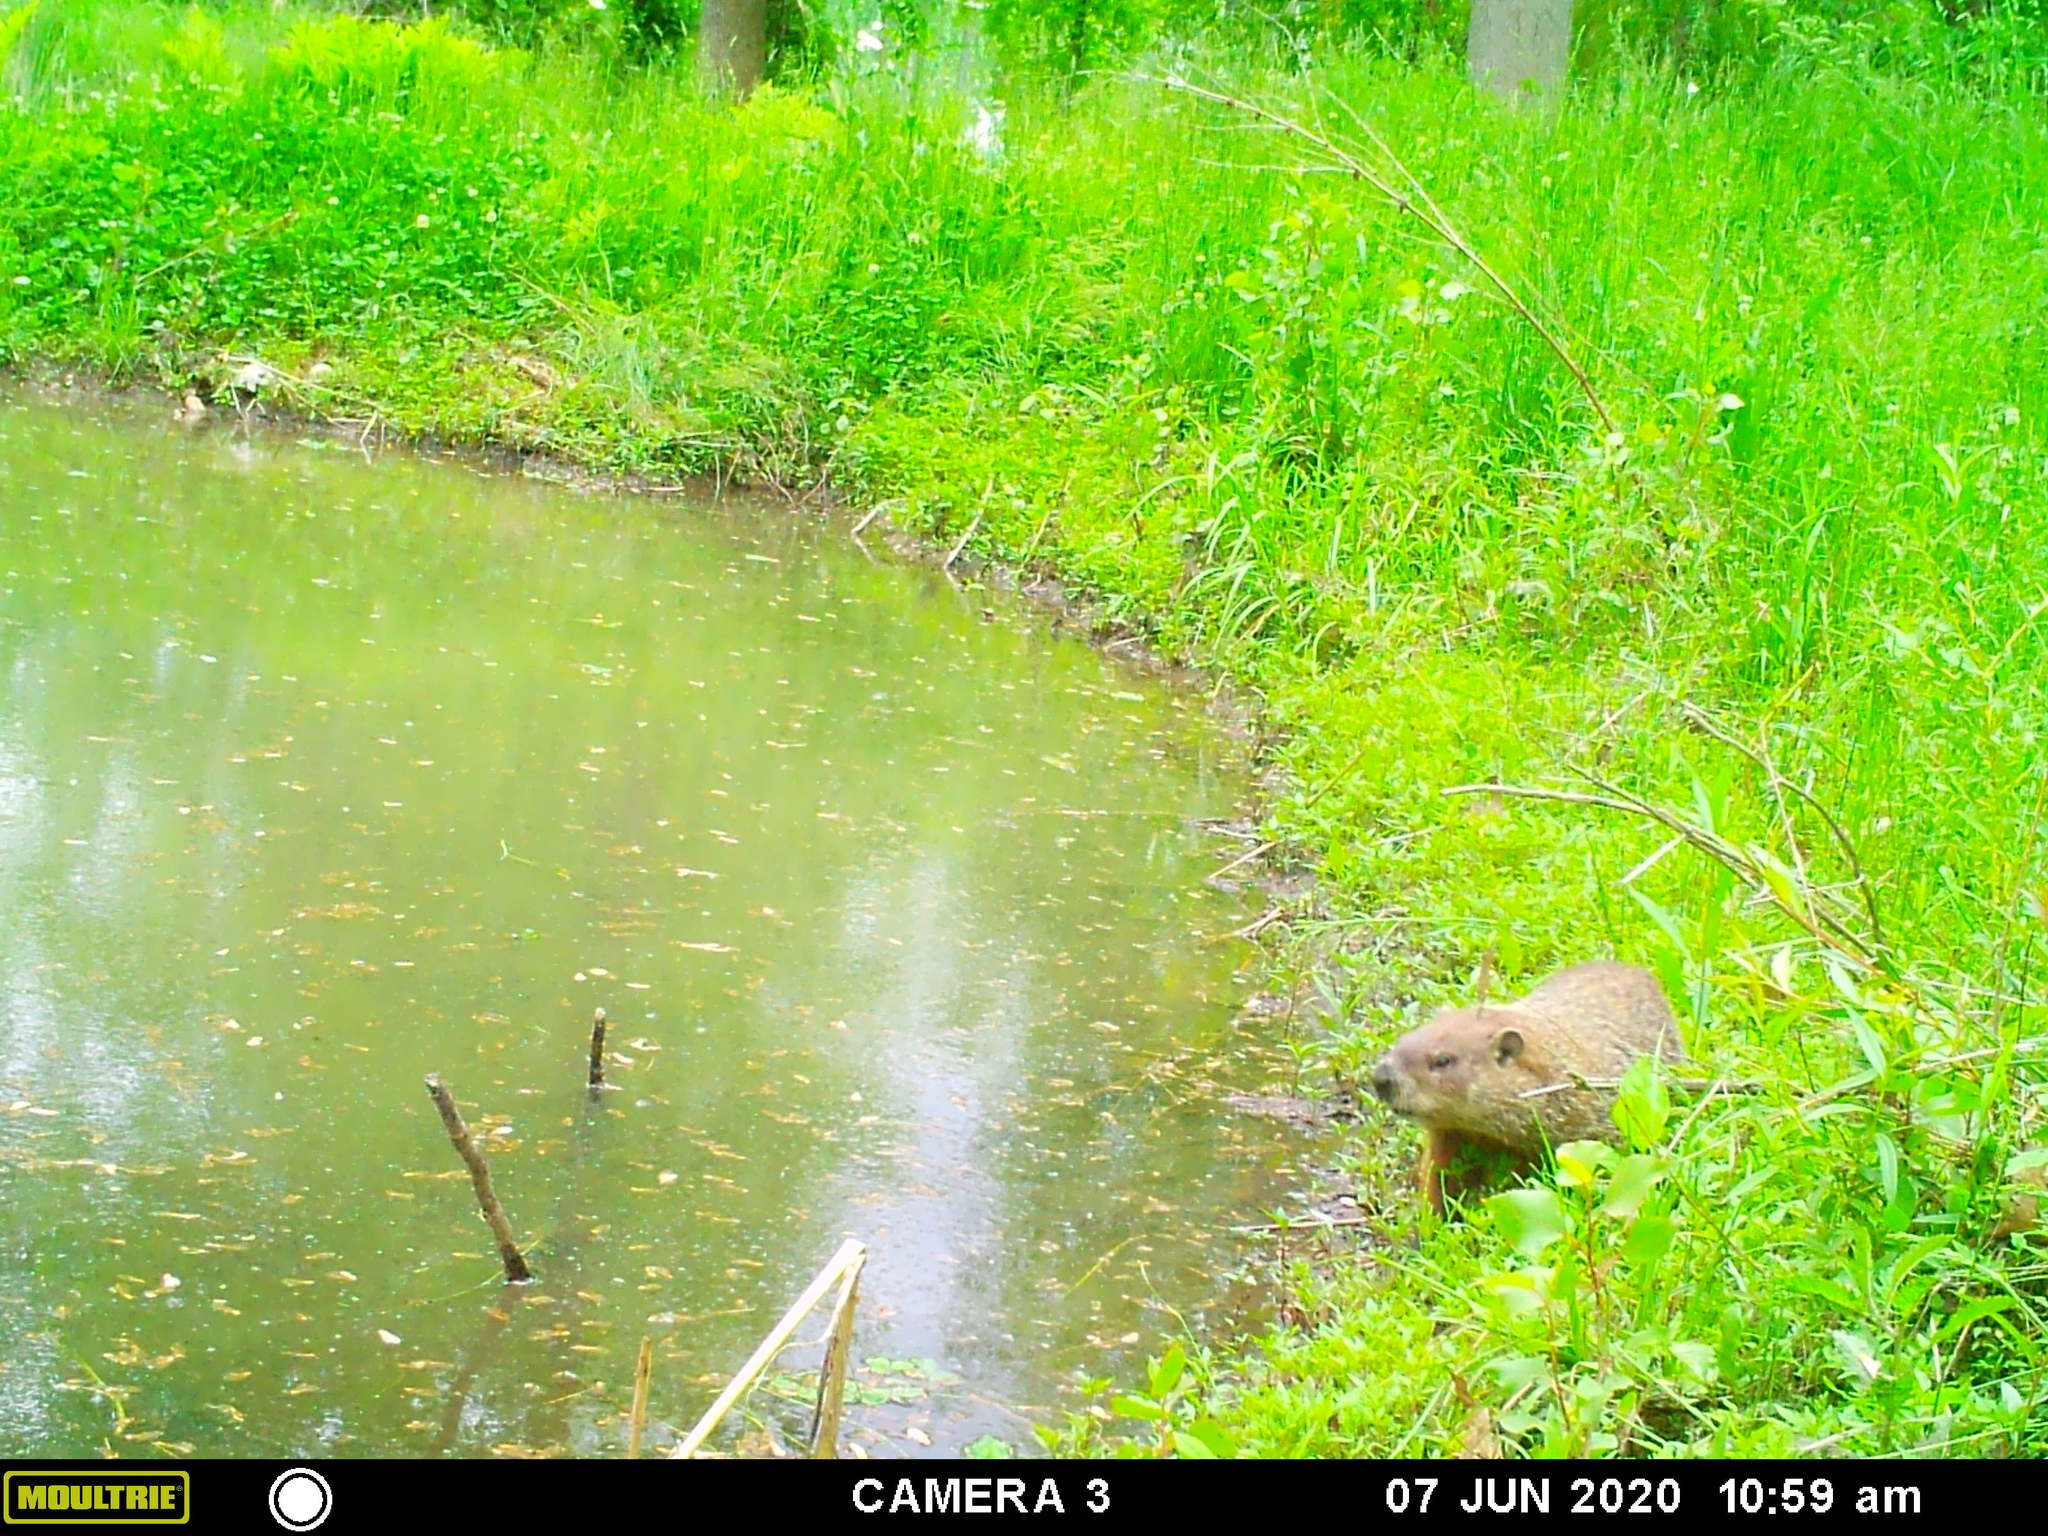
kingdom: Animalia
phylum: Chordata
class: Mammalia
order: Rodentia
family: Sciuridae
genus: Marmota
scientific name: Marmota monax
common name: Groundhog
